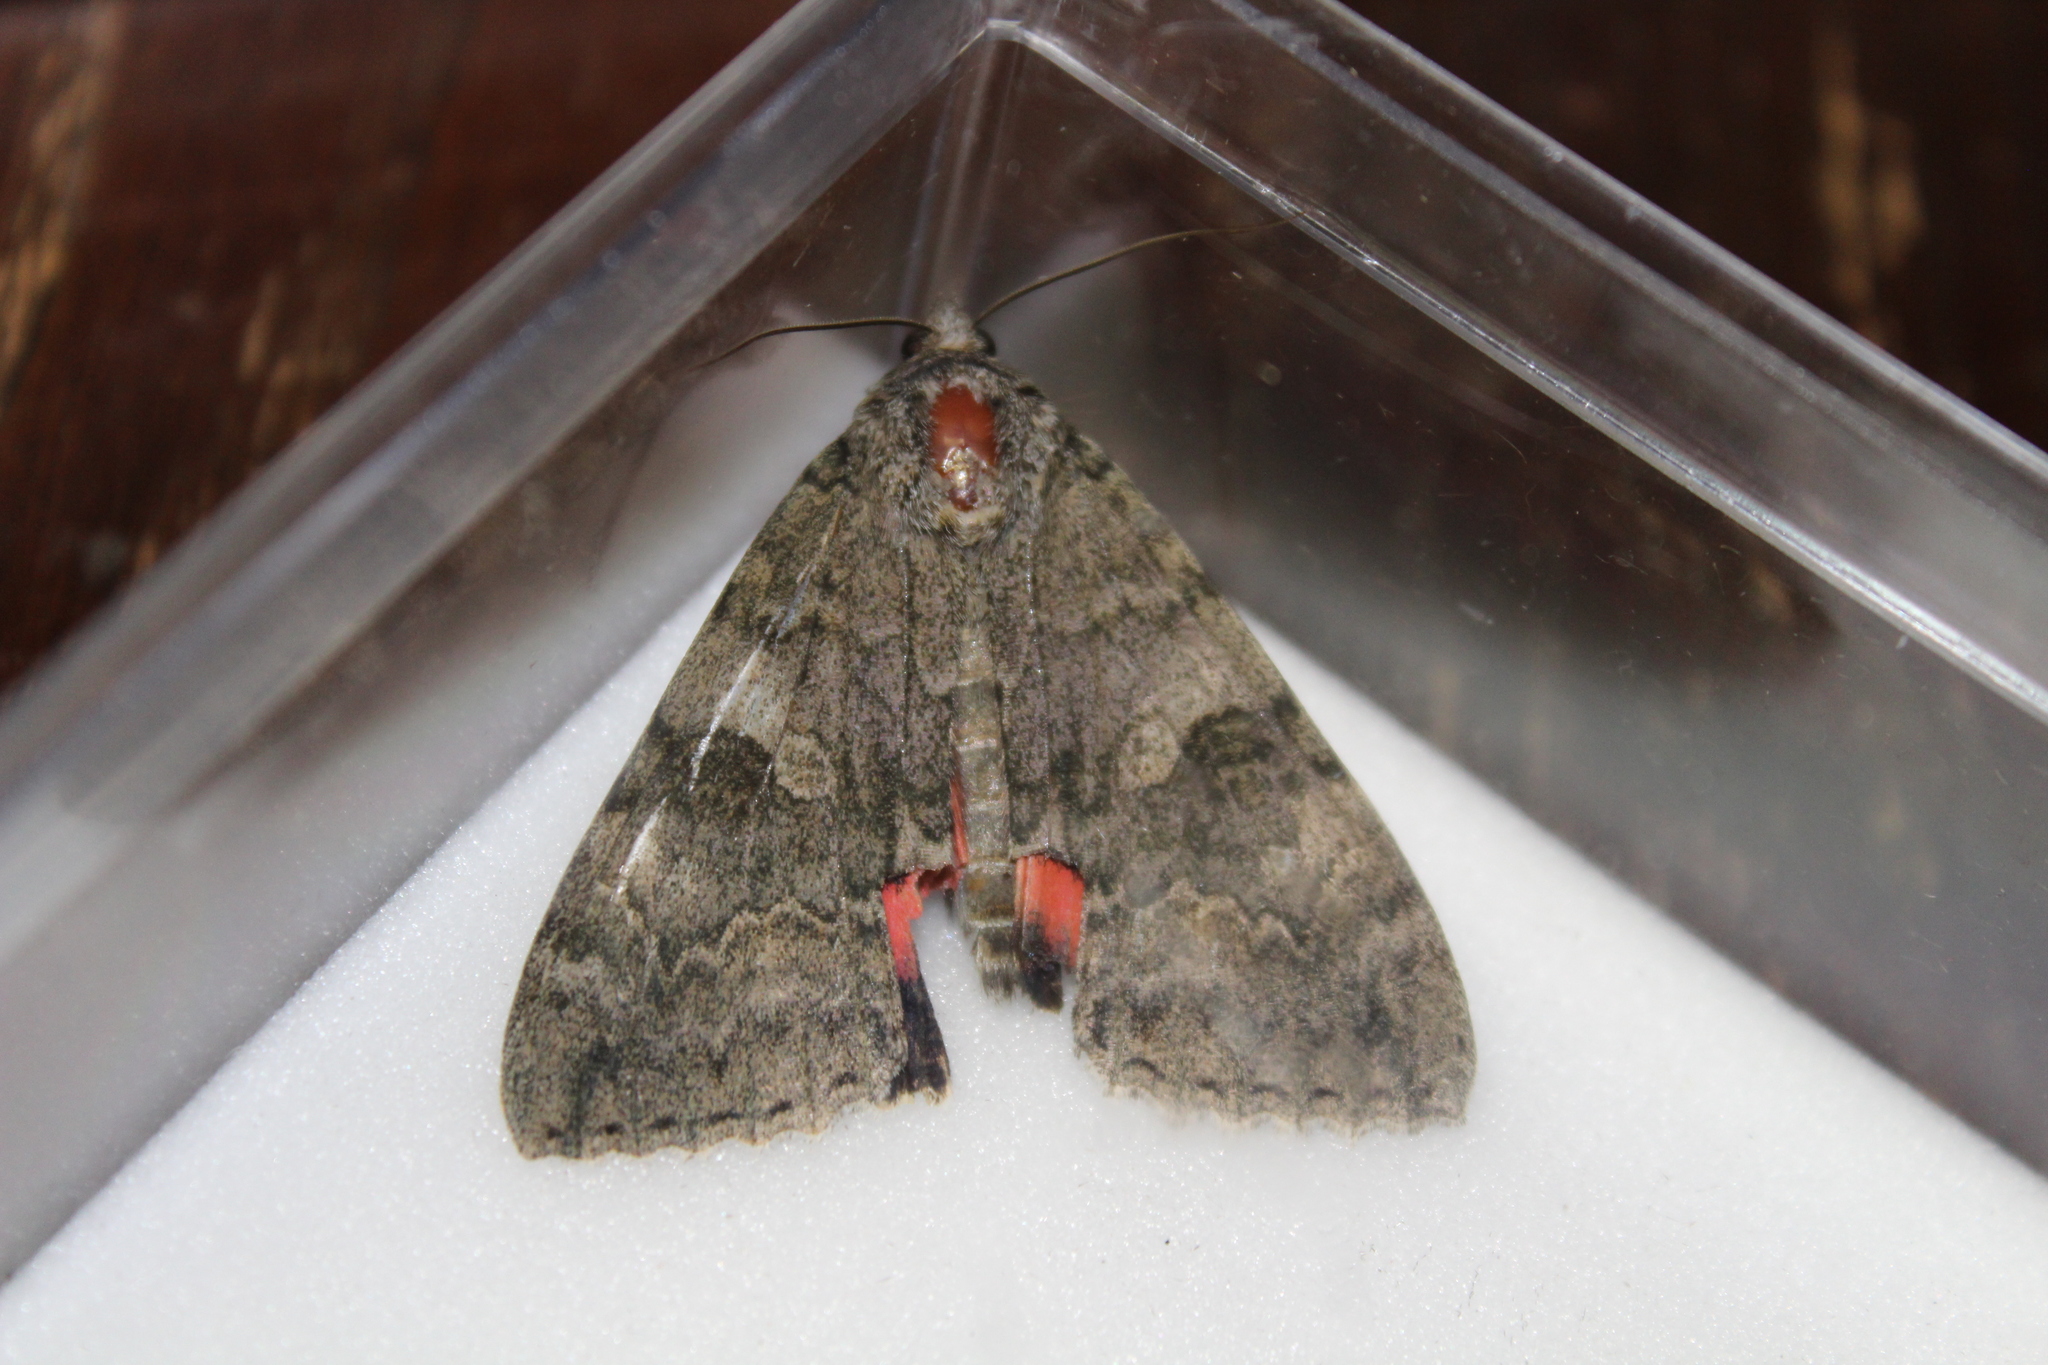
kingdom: Animalia
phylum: Arthropoda
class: Insecta
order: Lepidoptera
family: Erebidae
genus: Catocala
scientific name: Catocala nupta
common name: Red underwing
